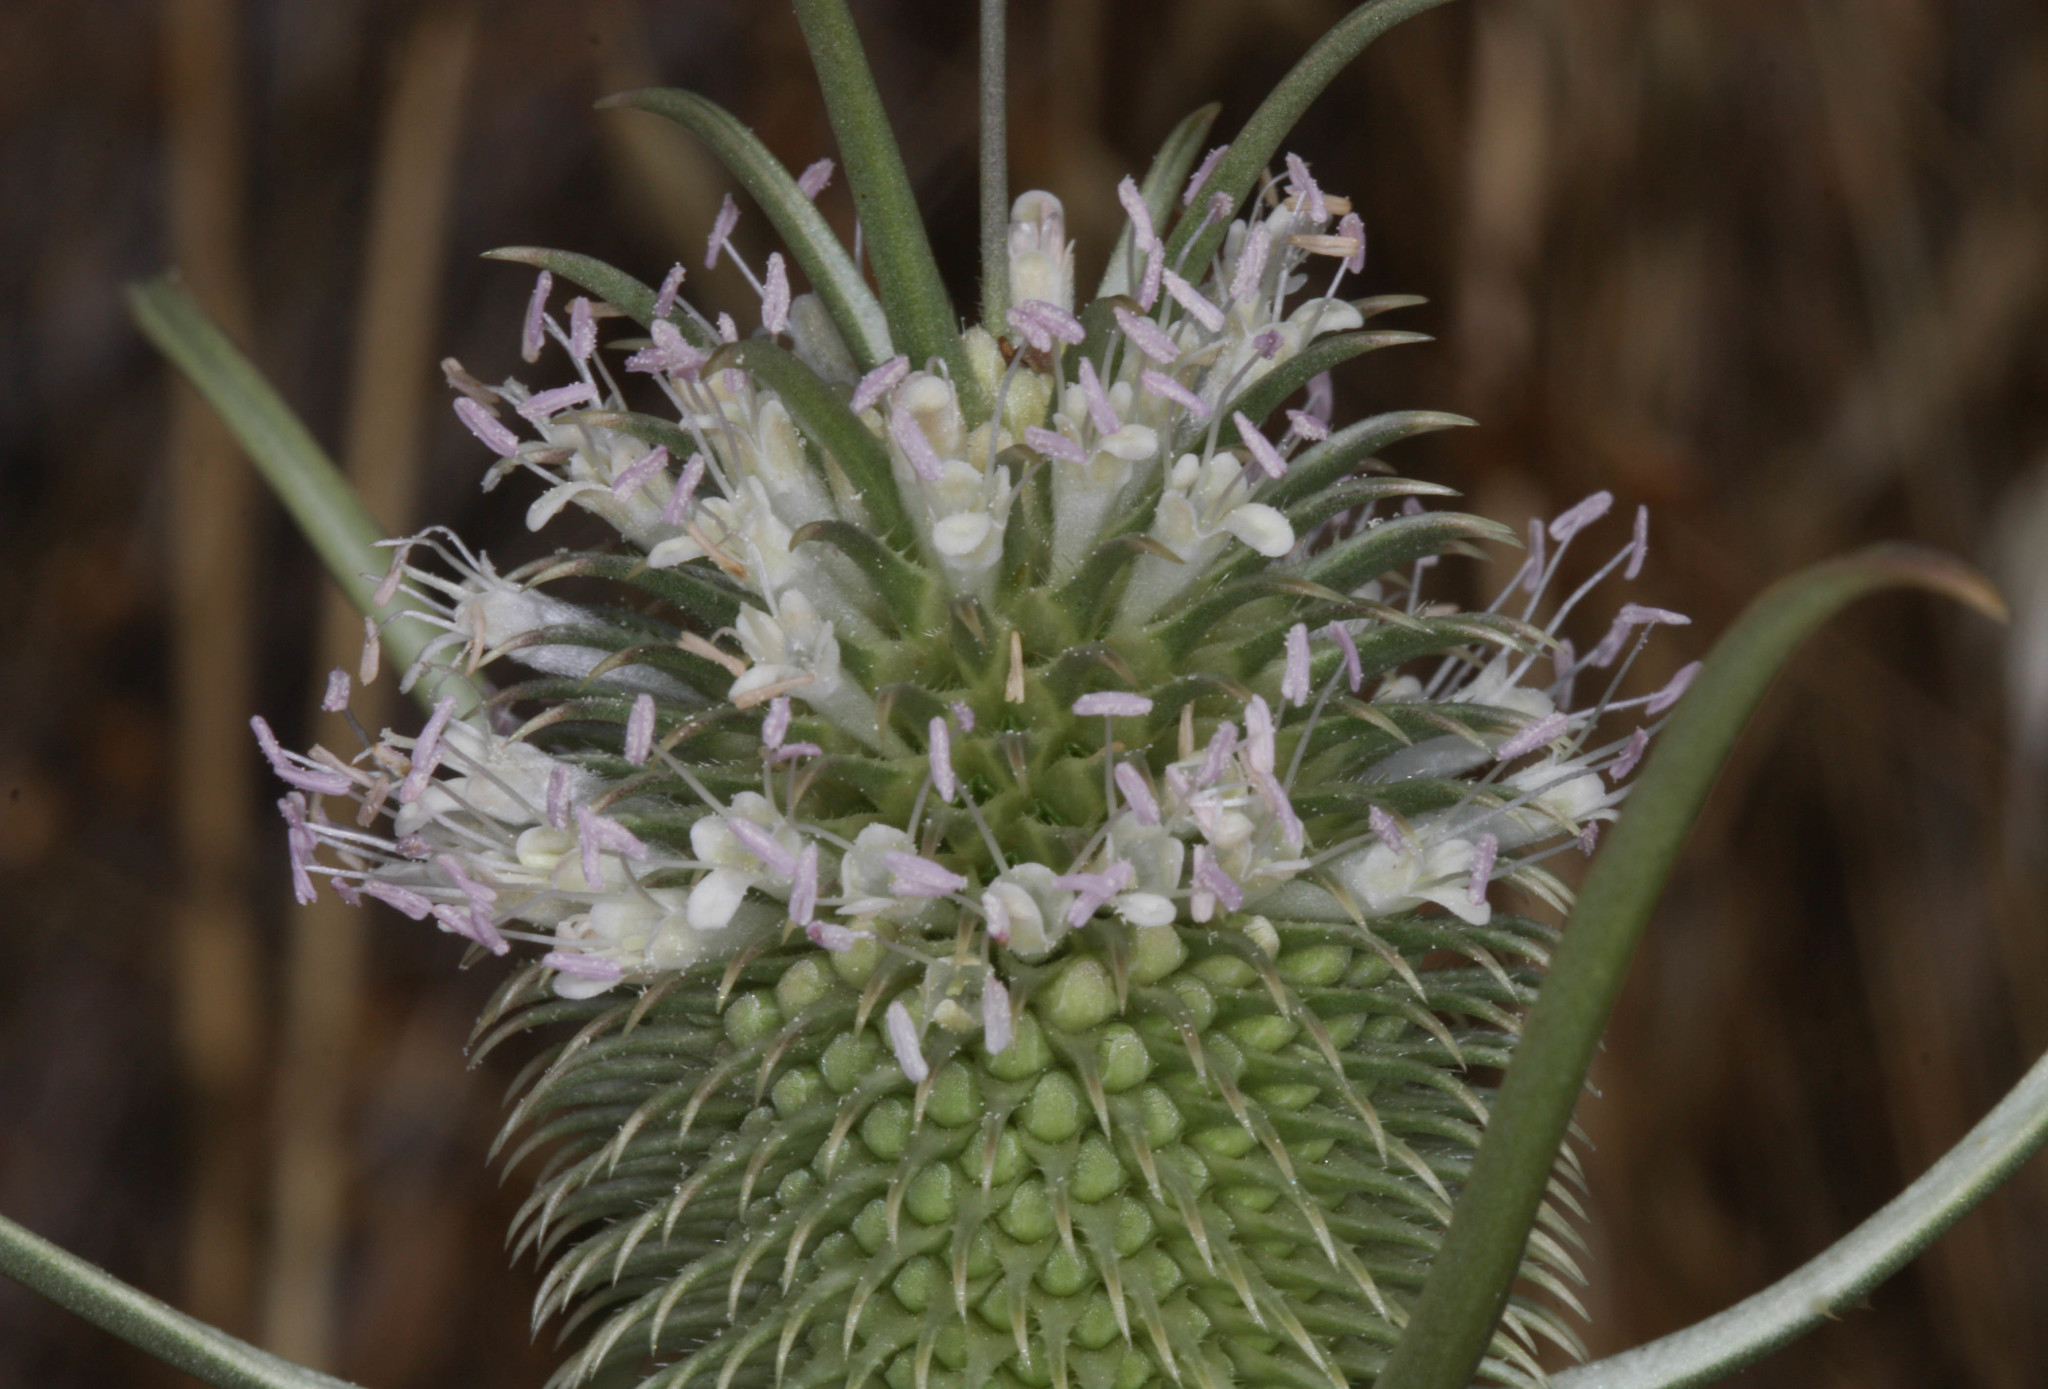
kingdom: Plantae
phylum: Tracheophyta
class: Magnoliopsida
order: Dipsacales
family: Caprifoliaceae
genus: Dipsacus
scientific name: Dipsacus sativus
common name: Fuller's teasel
